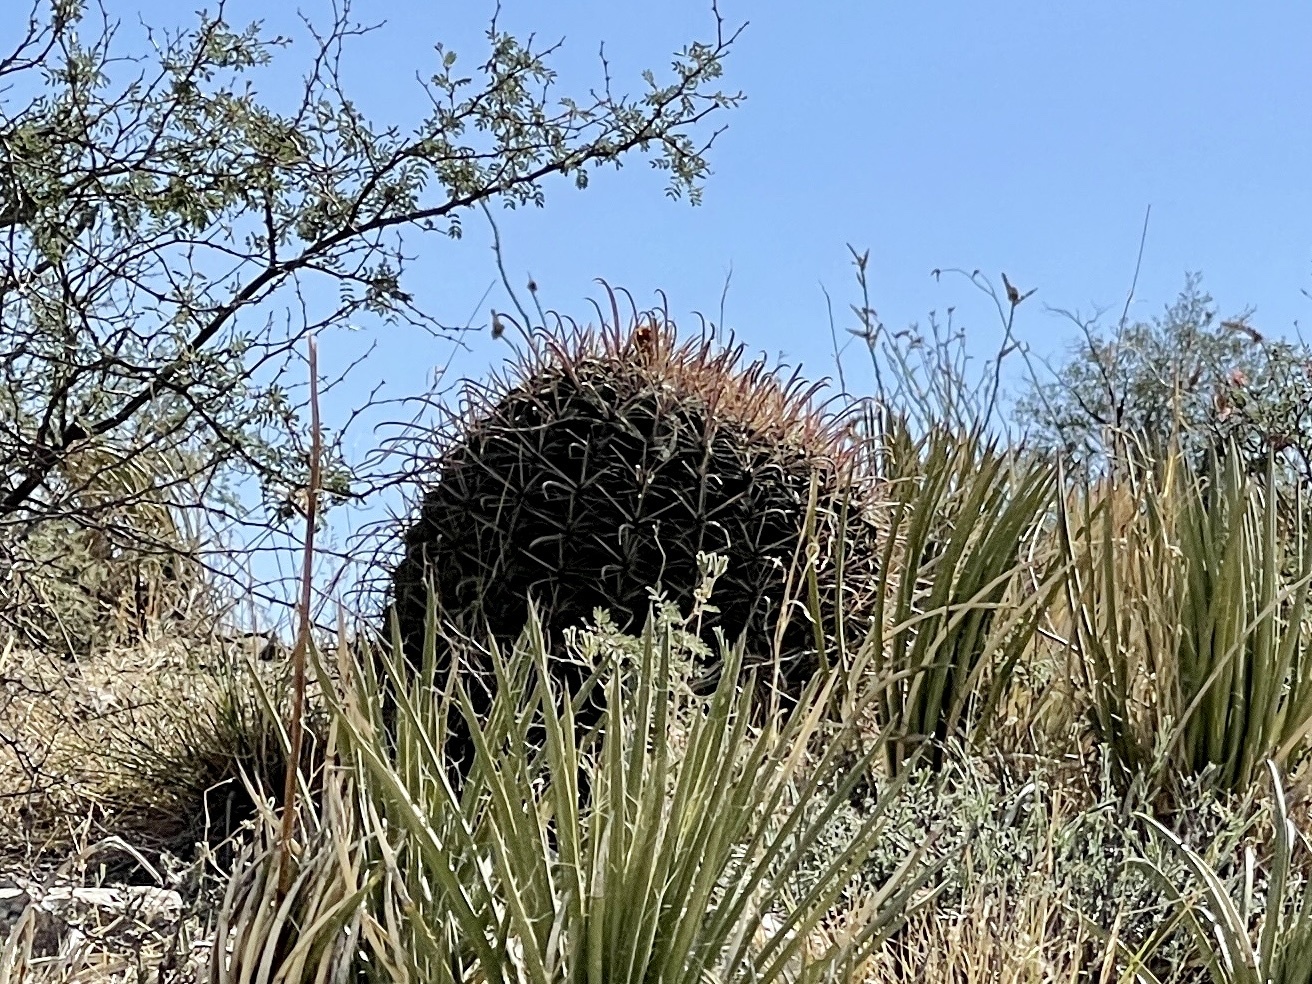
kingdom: Plantae
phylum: Tracheophyta
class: Magnoliopsida
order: Caryophyllales
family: Cactaceae
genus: Ferocactus
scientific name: Ferocactus wislizeni
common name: Candy barrel cactus
